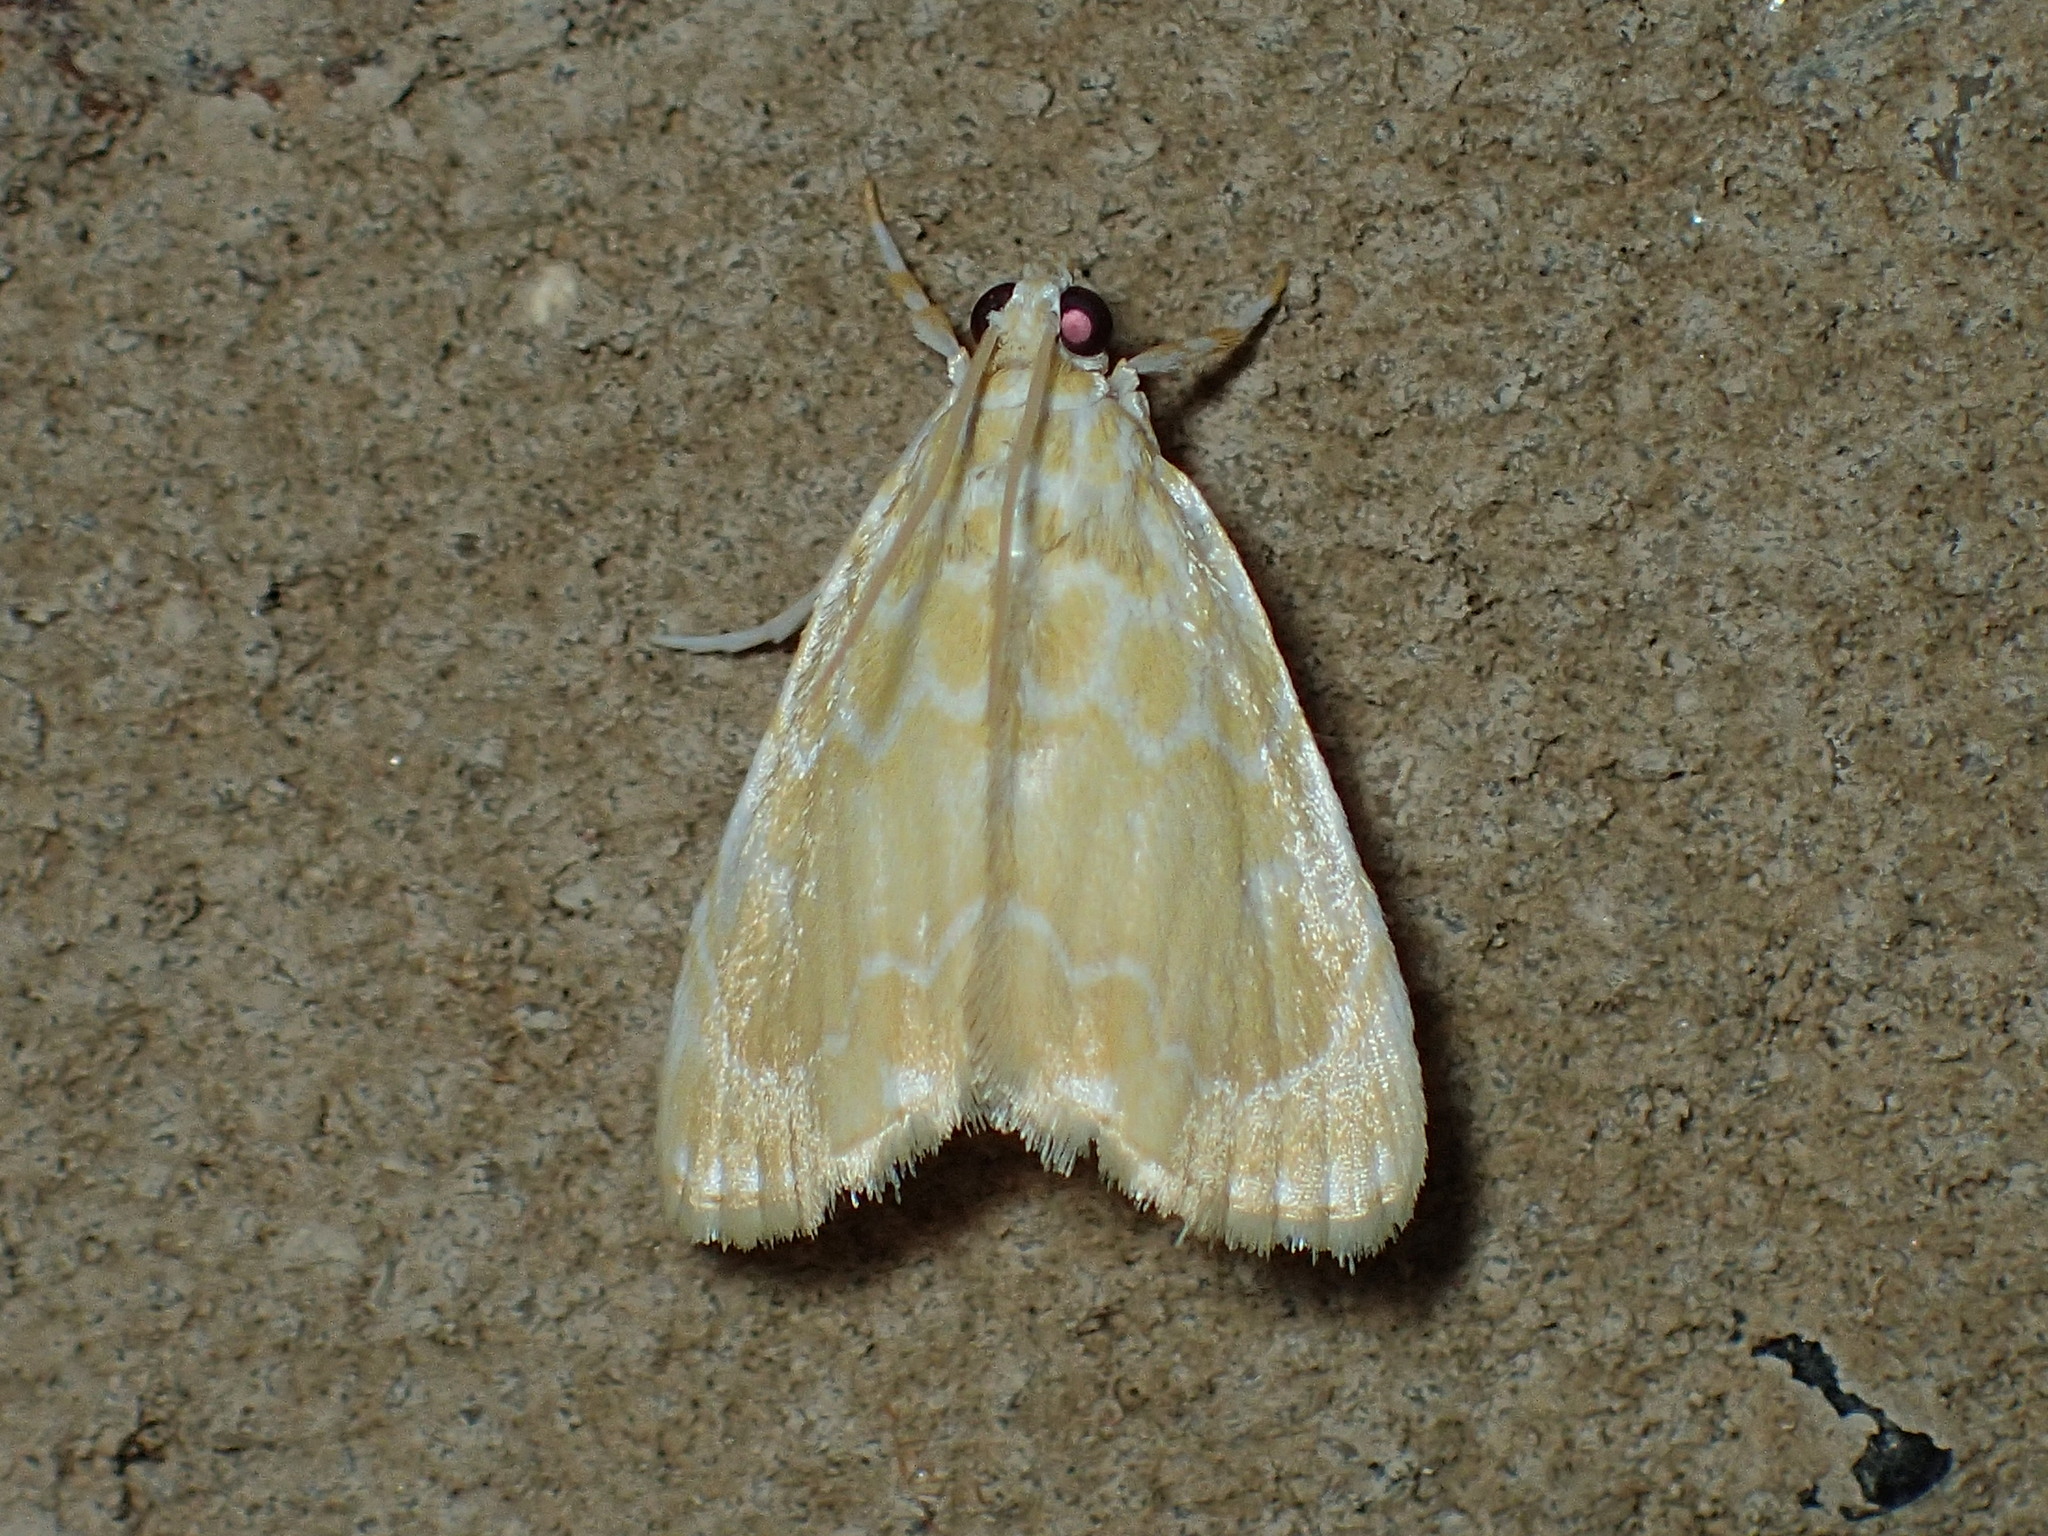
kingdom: Animalia
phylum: Arthropoda
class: Insecta
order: Lepidoptera
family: Crambidae
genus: Glaphyria
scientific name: Glaphyria glaphyralis
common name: Common glaphyria moth
